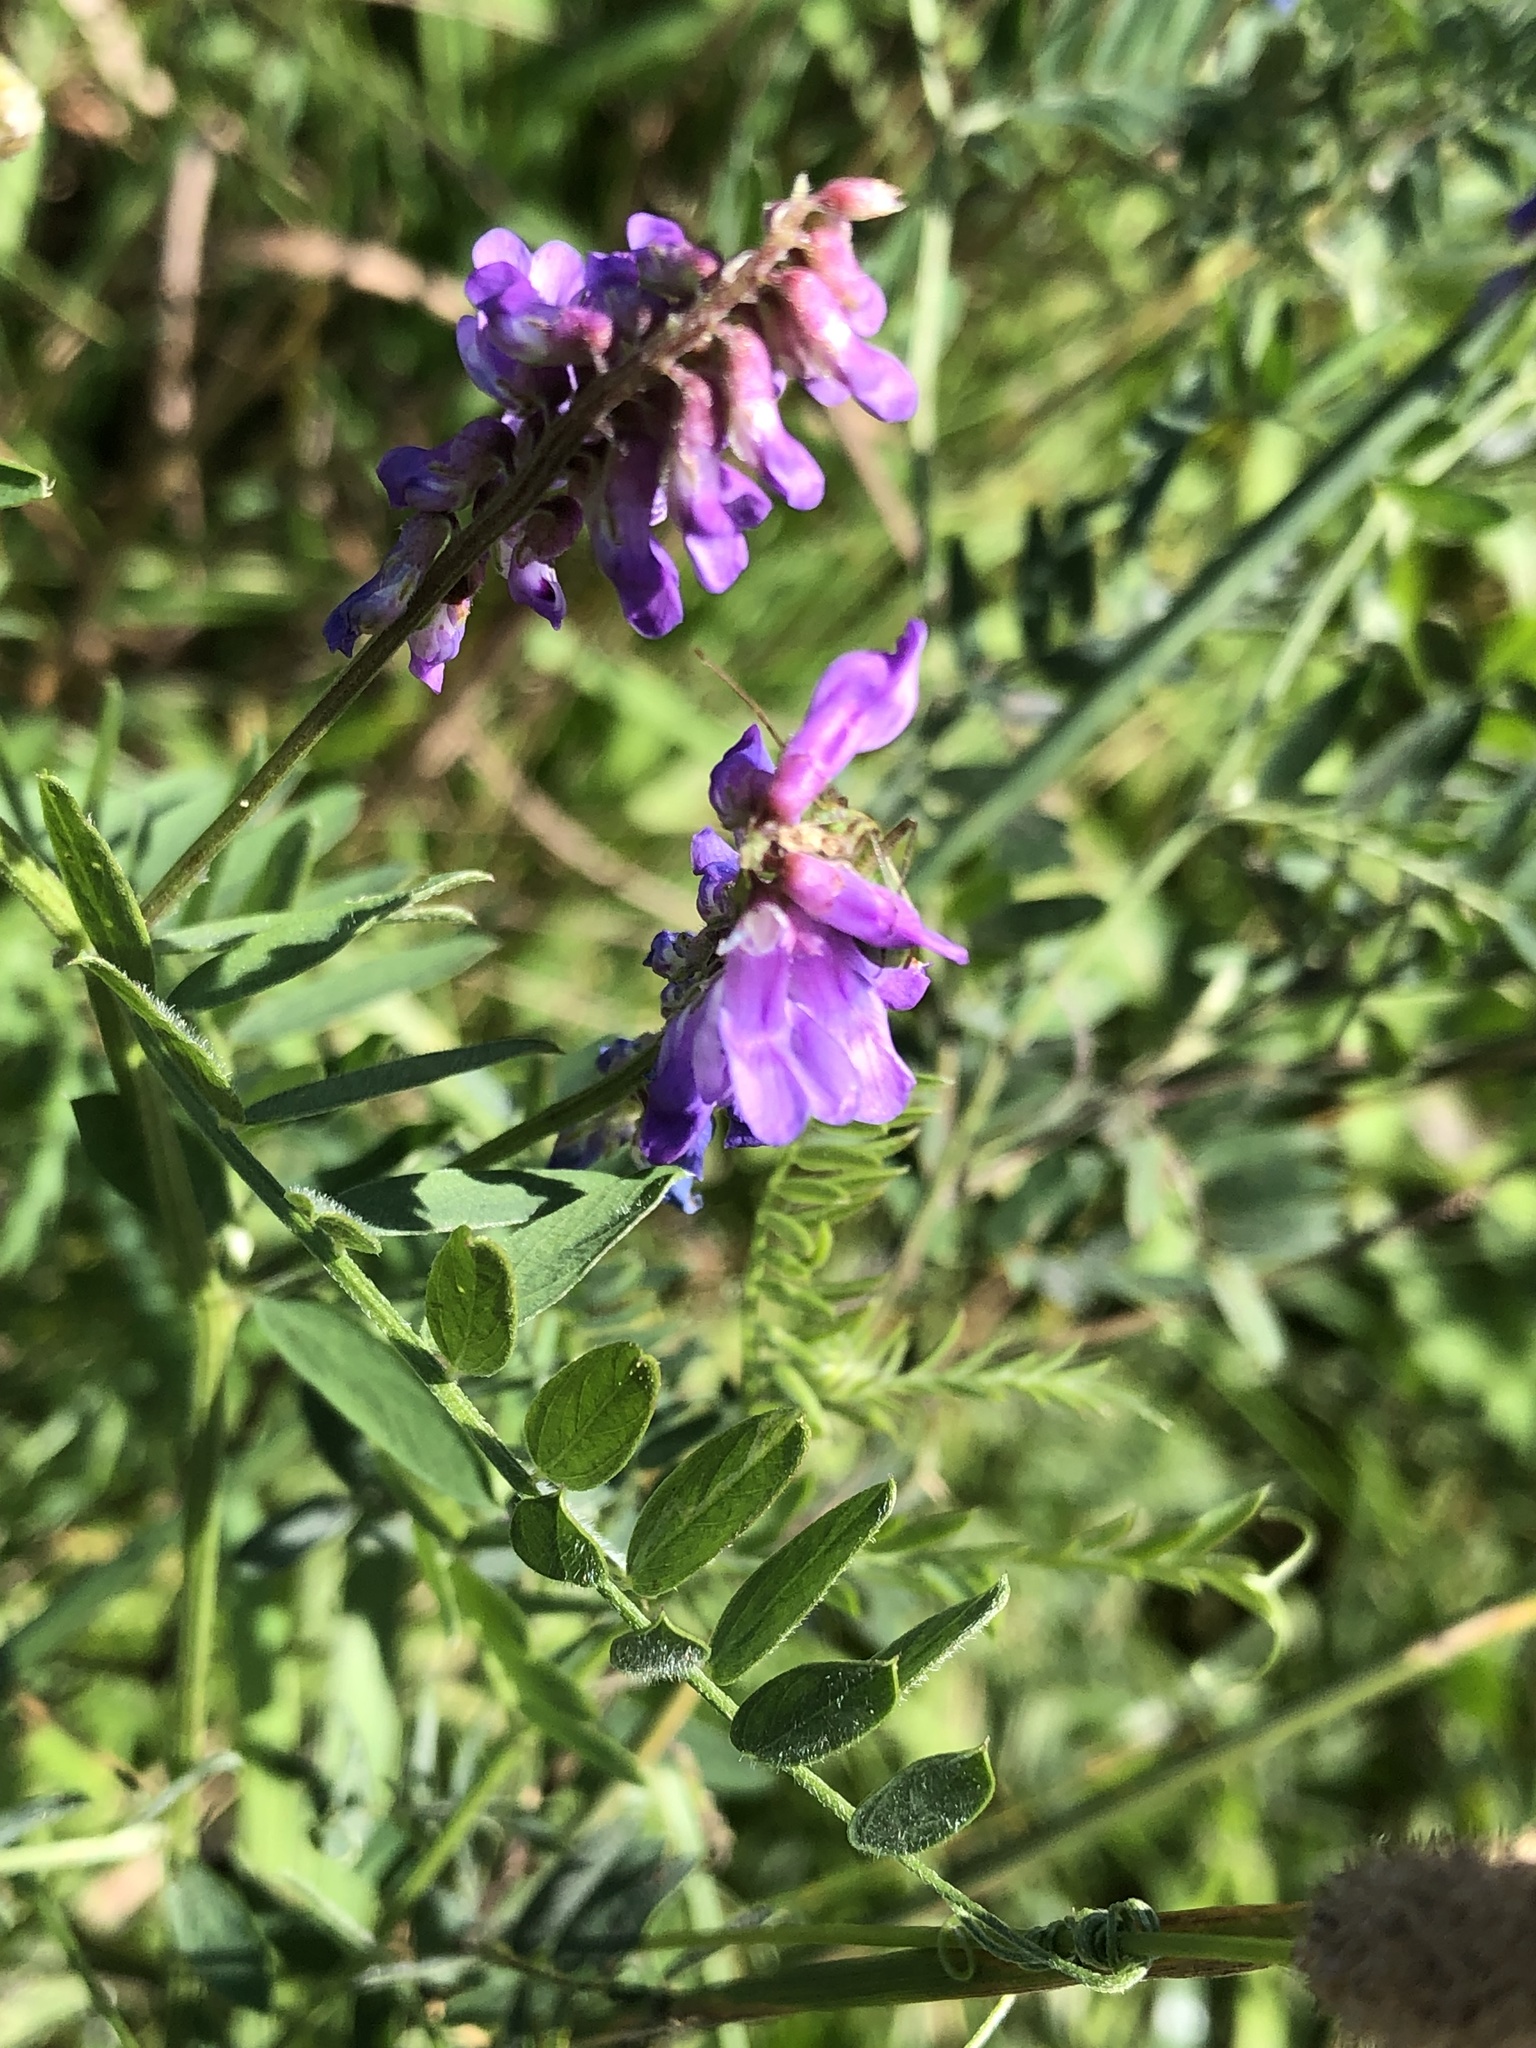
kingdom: Plantae
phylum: Tracheophyta
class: Magnoliopsida
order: Fabales
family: Fabaceae
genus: Vicia
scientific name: Vicia cracca
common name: Bird vetch
